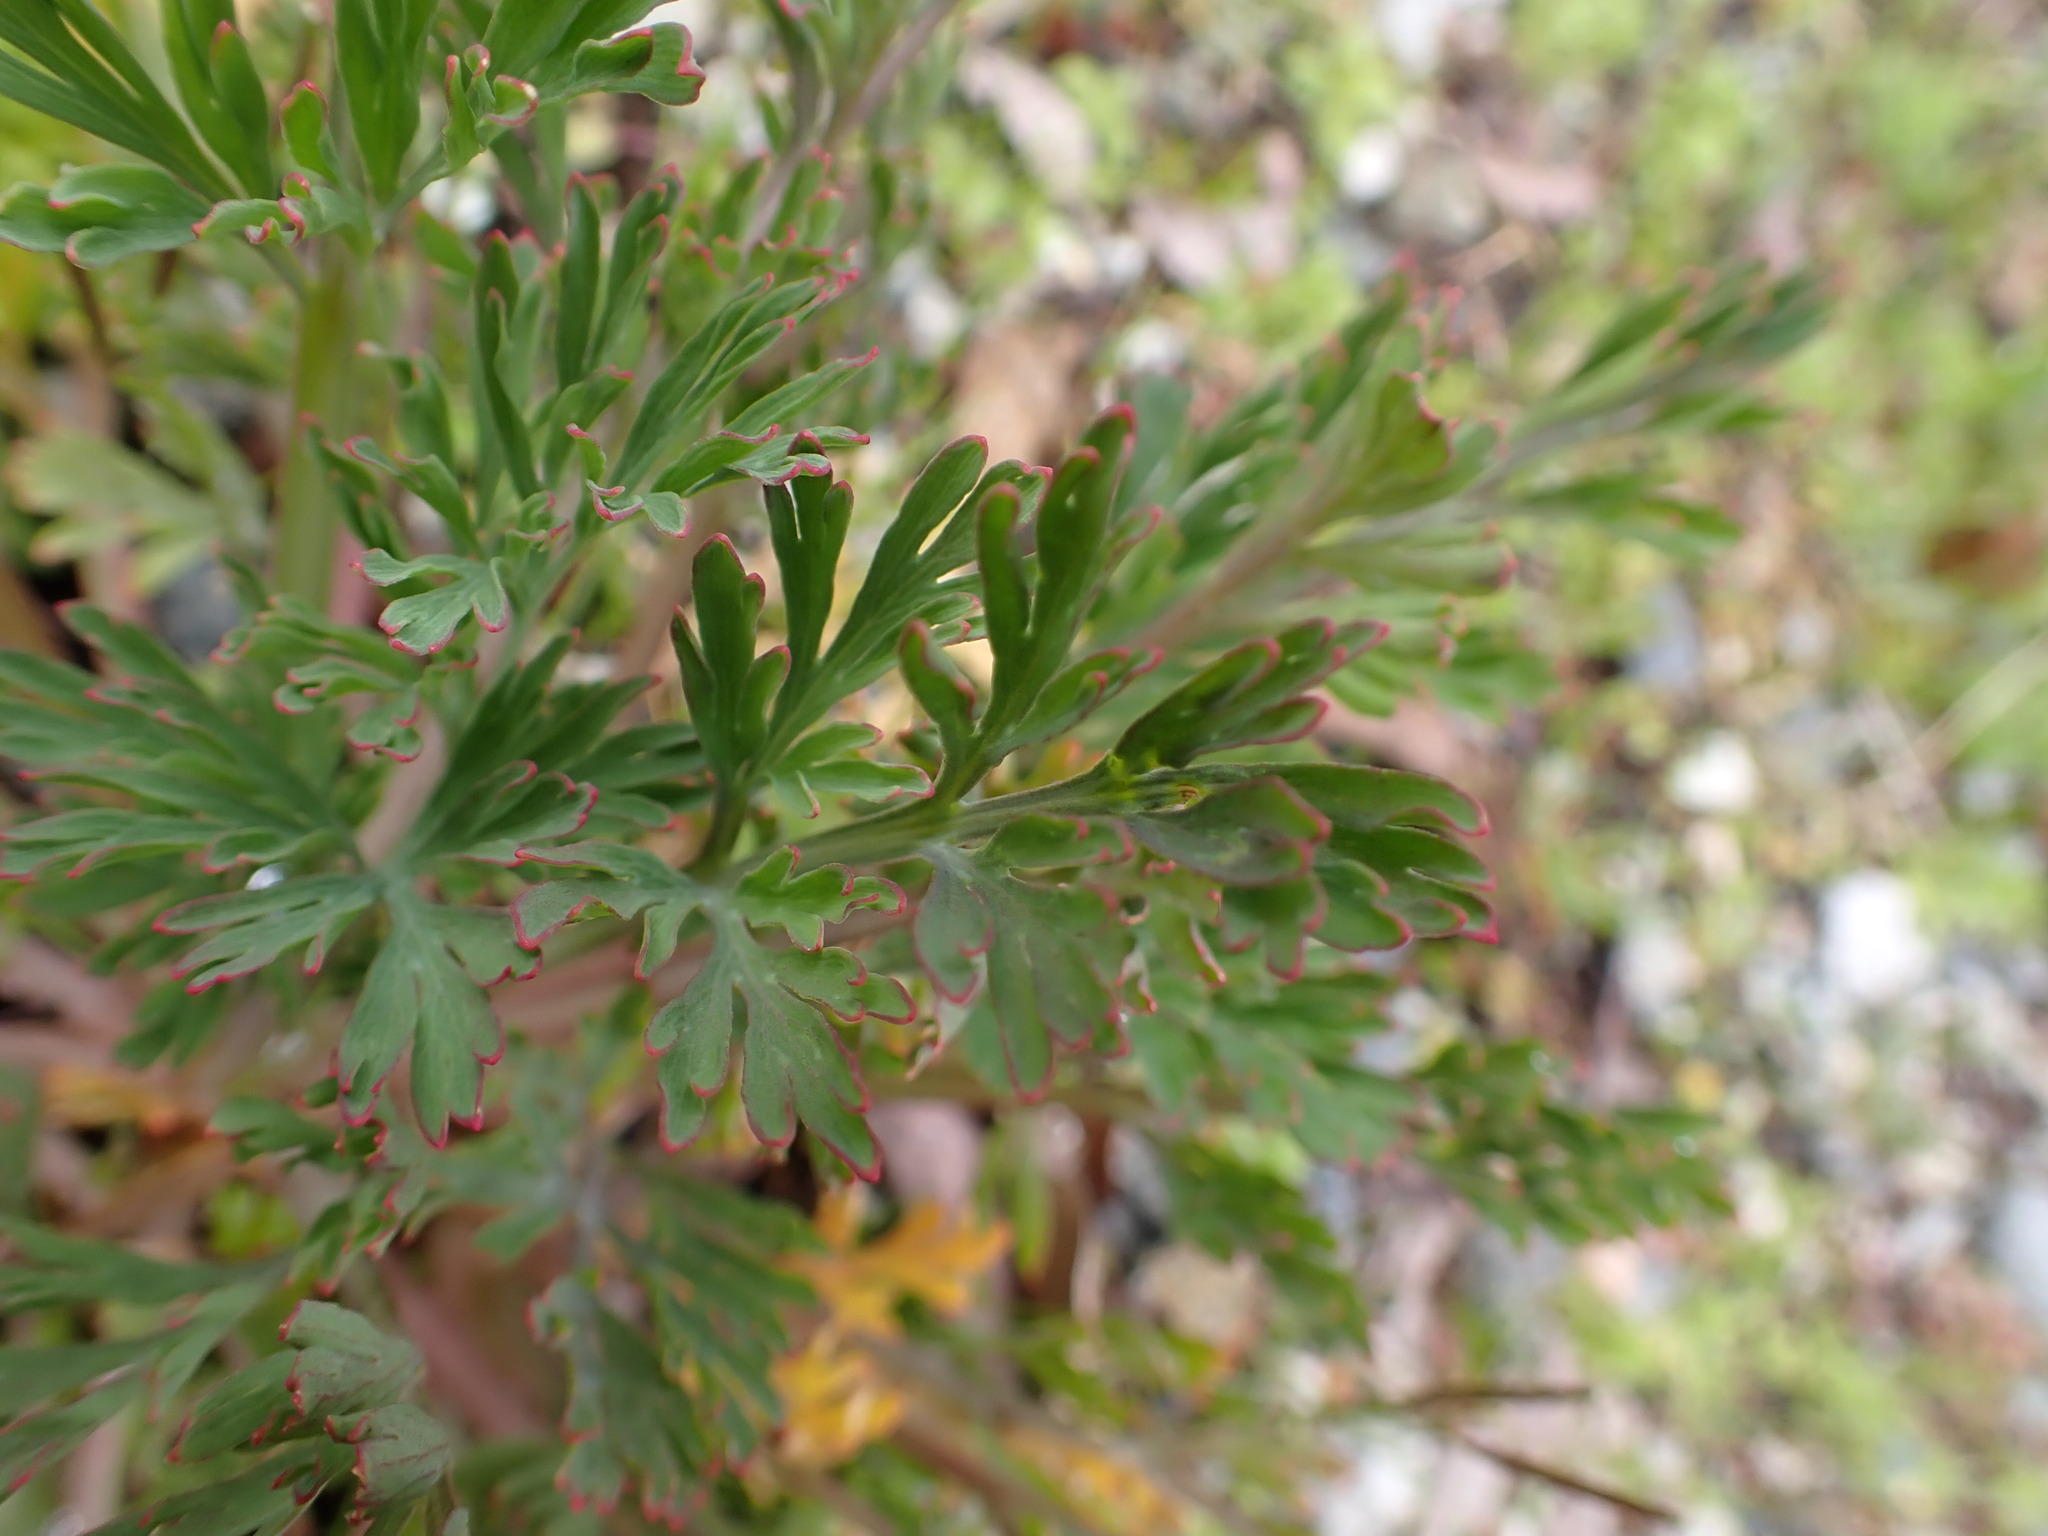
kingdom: Plantae
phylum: Tracheophyta
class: Magnoliopsida
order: Ranunculales
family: Papaveraceae
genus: Eschscholzia
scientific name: Eschscholzia californica
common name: California poppy
